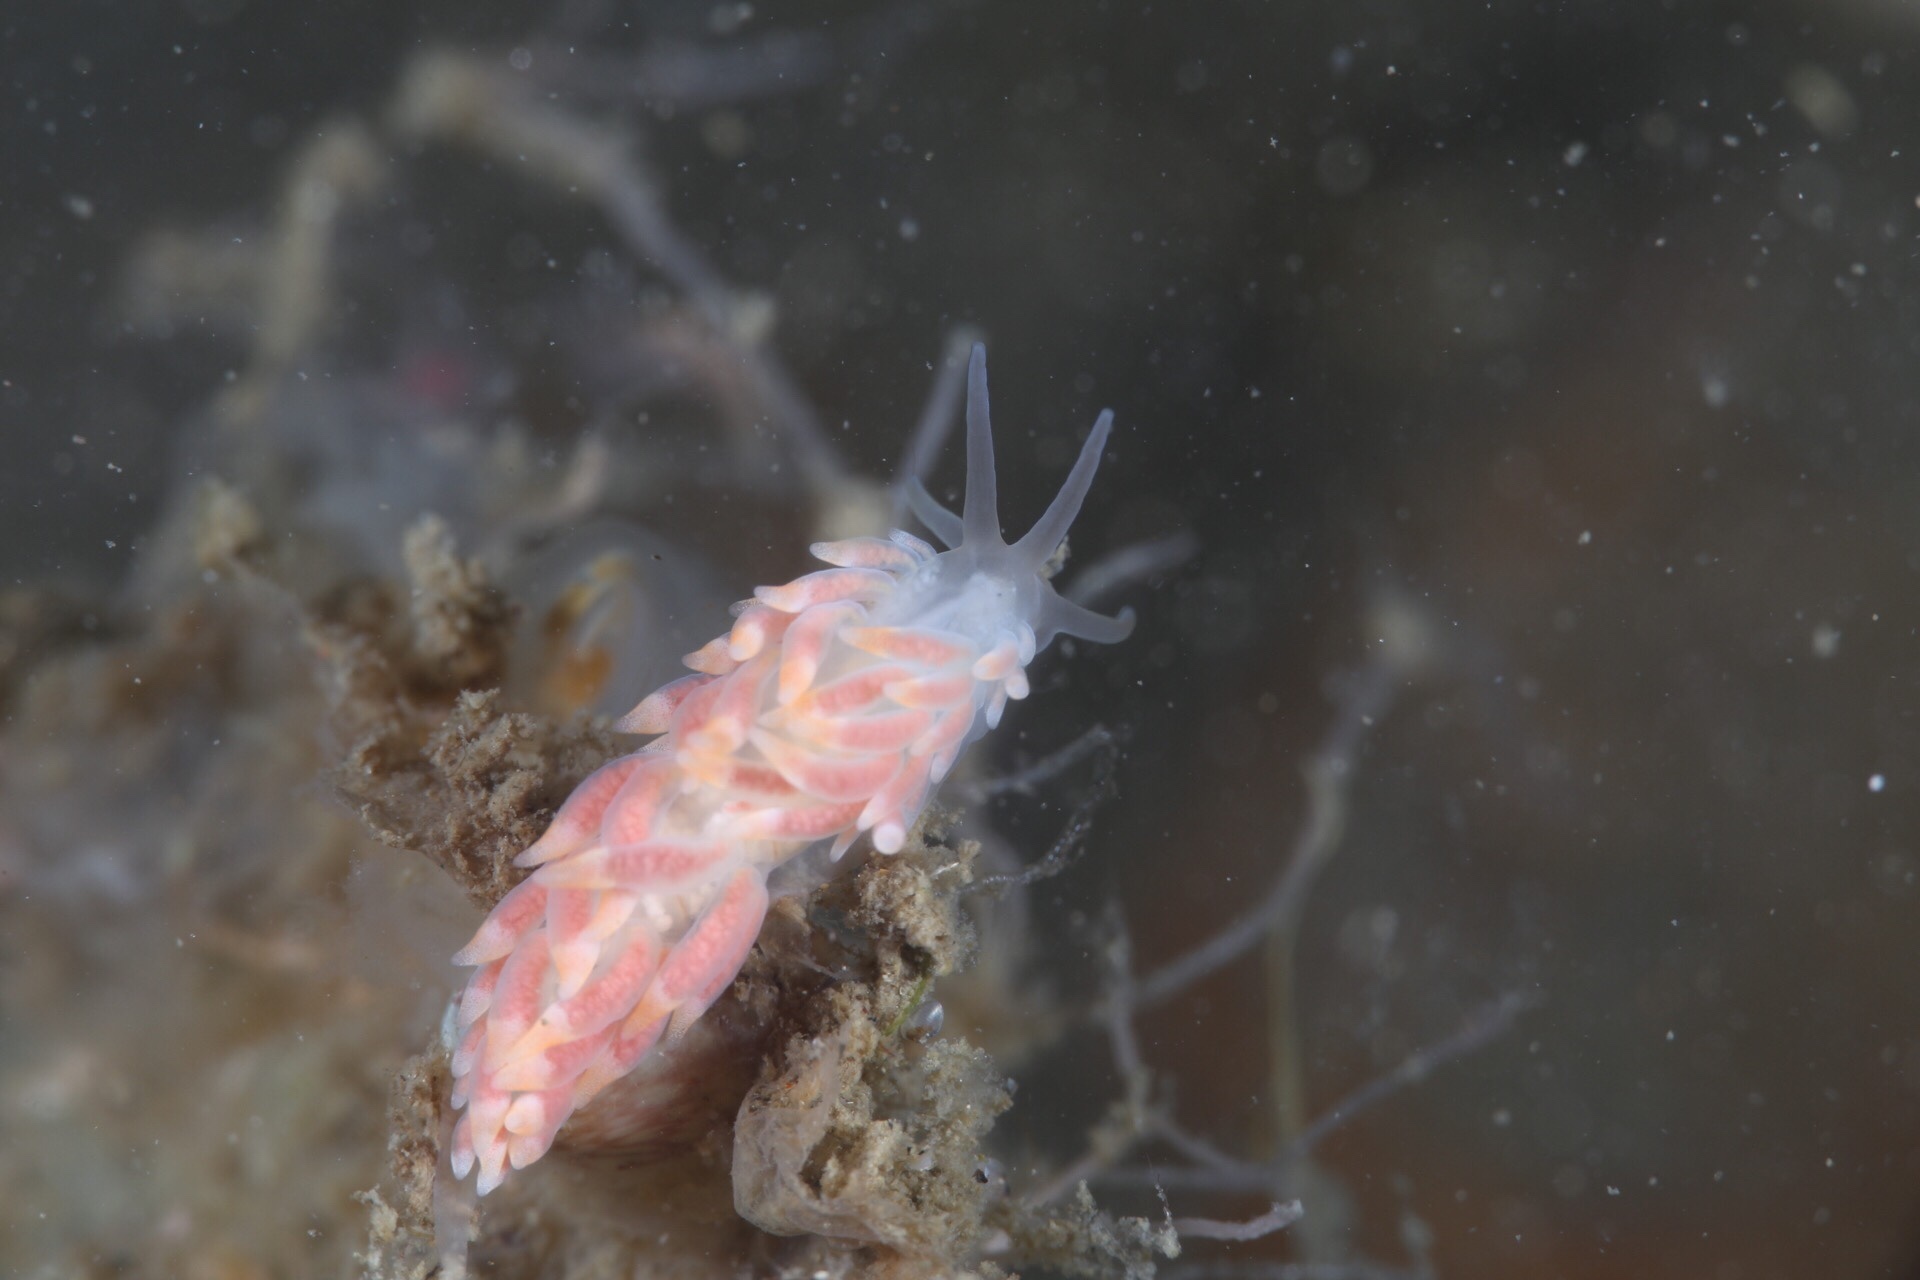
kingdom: Animalia
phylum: Mollusca
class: Gastropoda
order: Nudibranchia
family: Trinchesiidae
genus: Catriona
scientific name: Catriona aurantia
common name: Corange-tip cuthona
